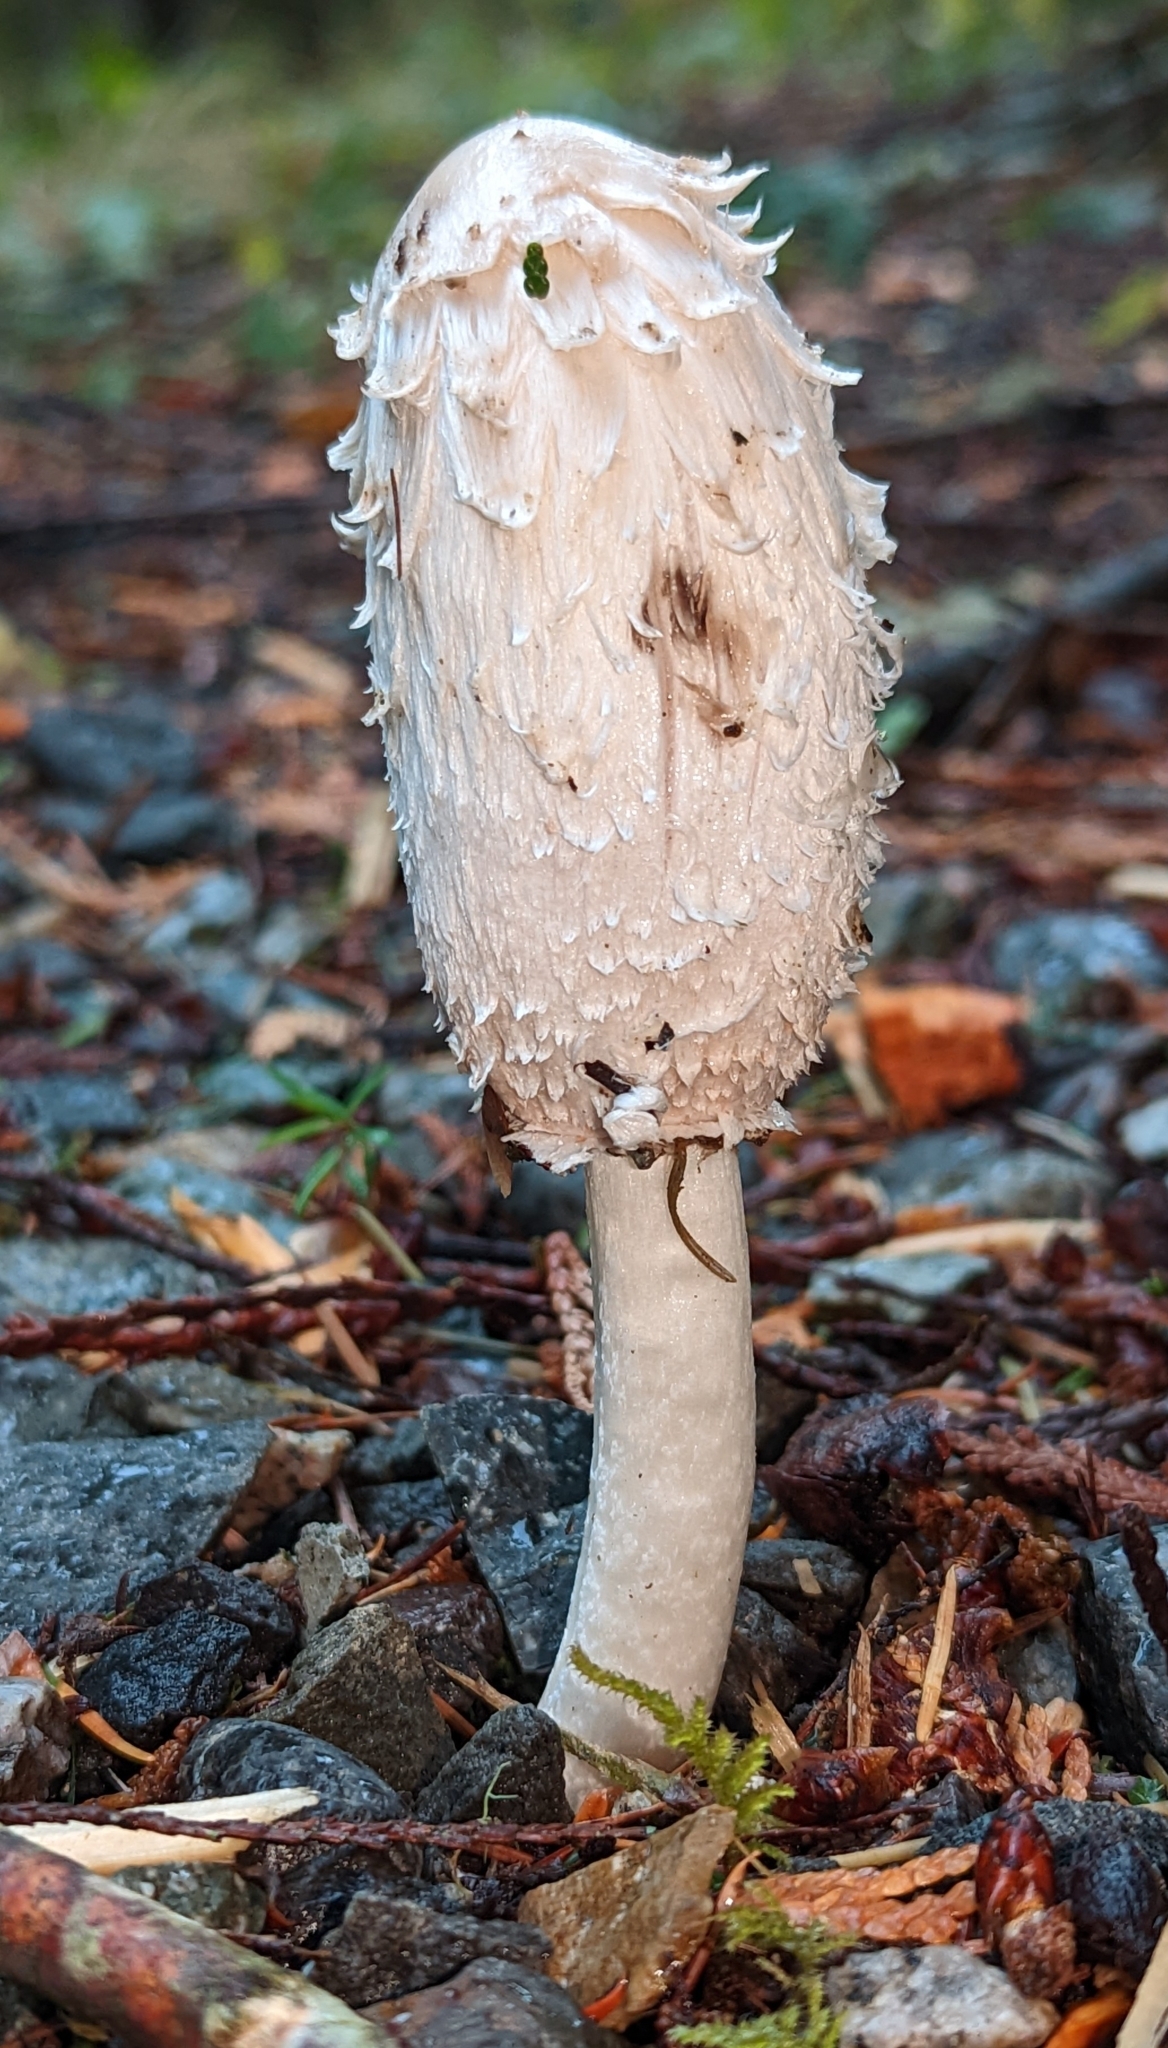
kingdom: Fungi
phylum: Basidiomycota
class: Agaricomycetes
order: Agaricales
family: Agaricaceae
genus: Coprinus
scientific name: Coprinus comatus
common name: Lawyer's wig
